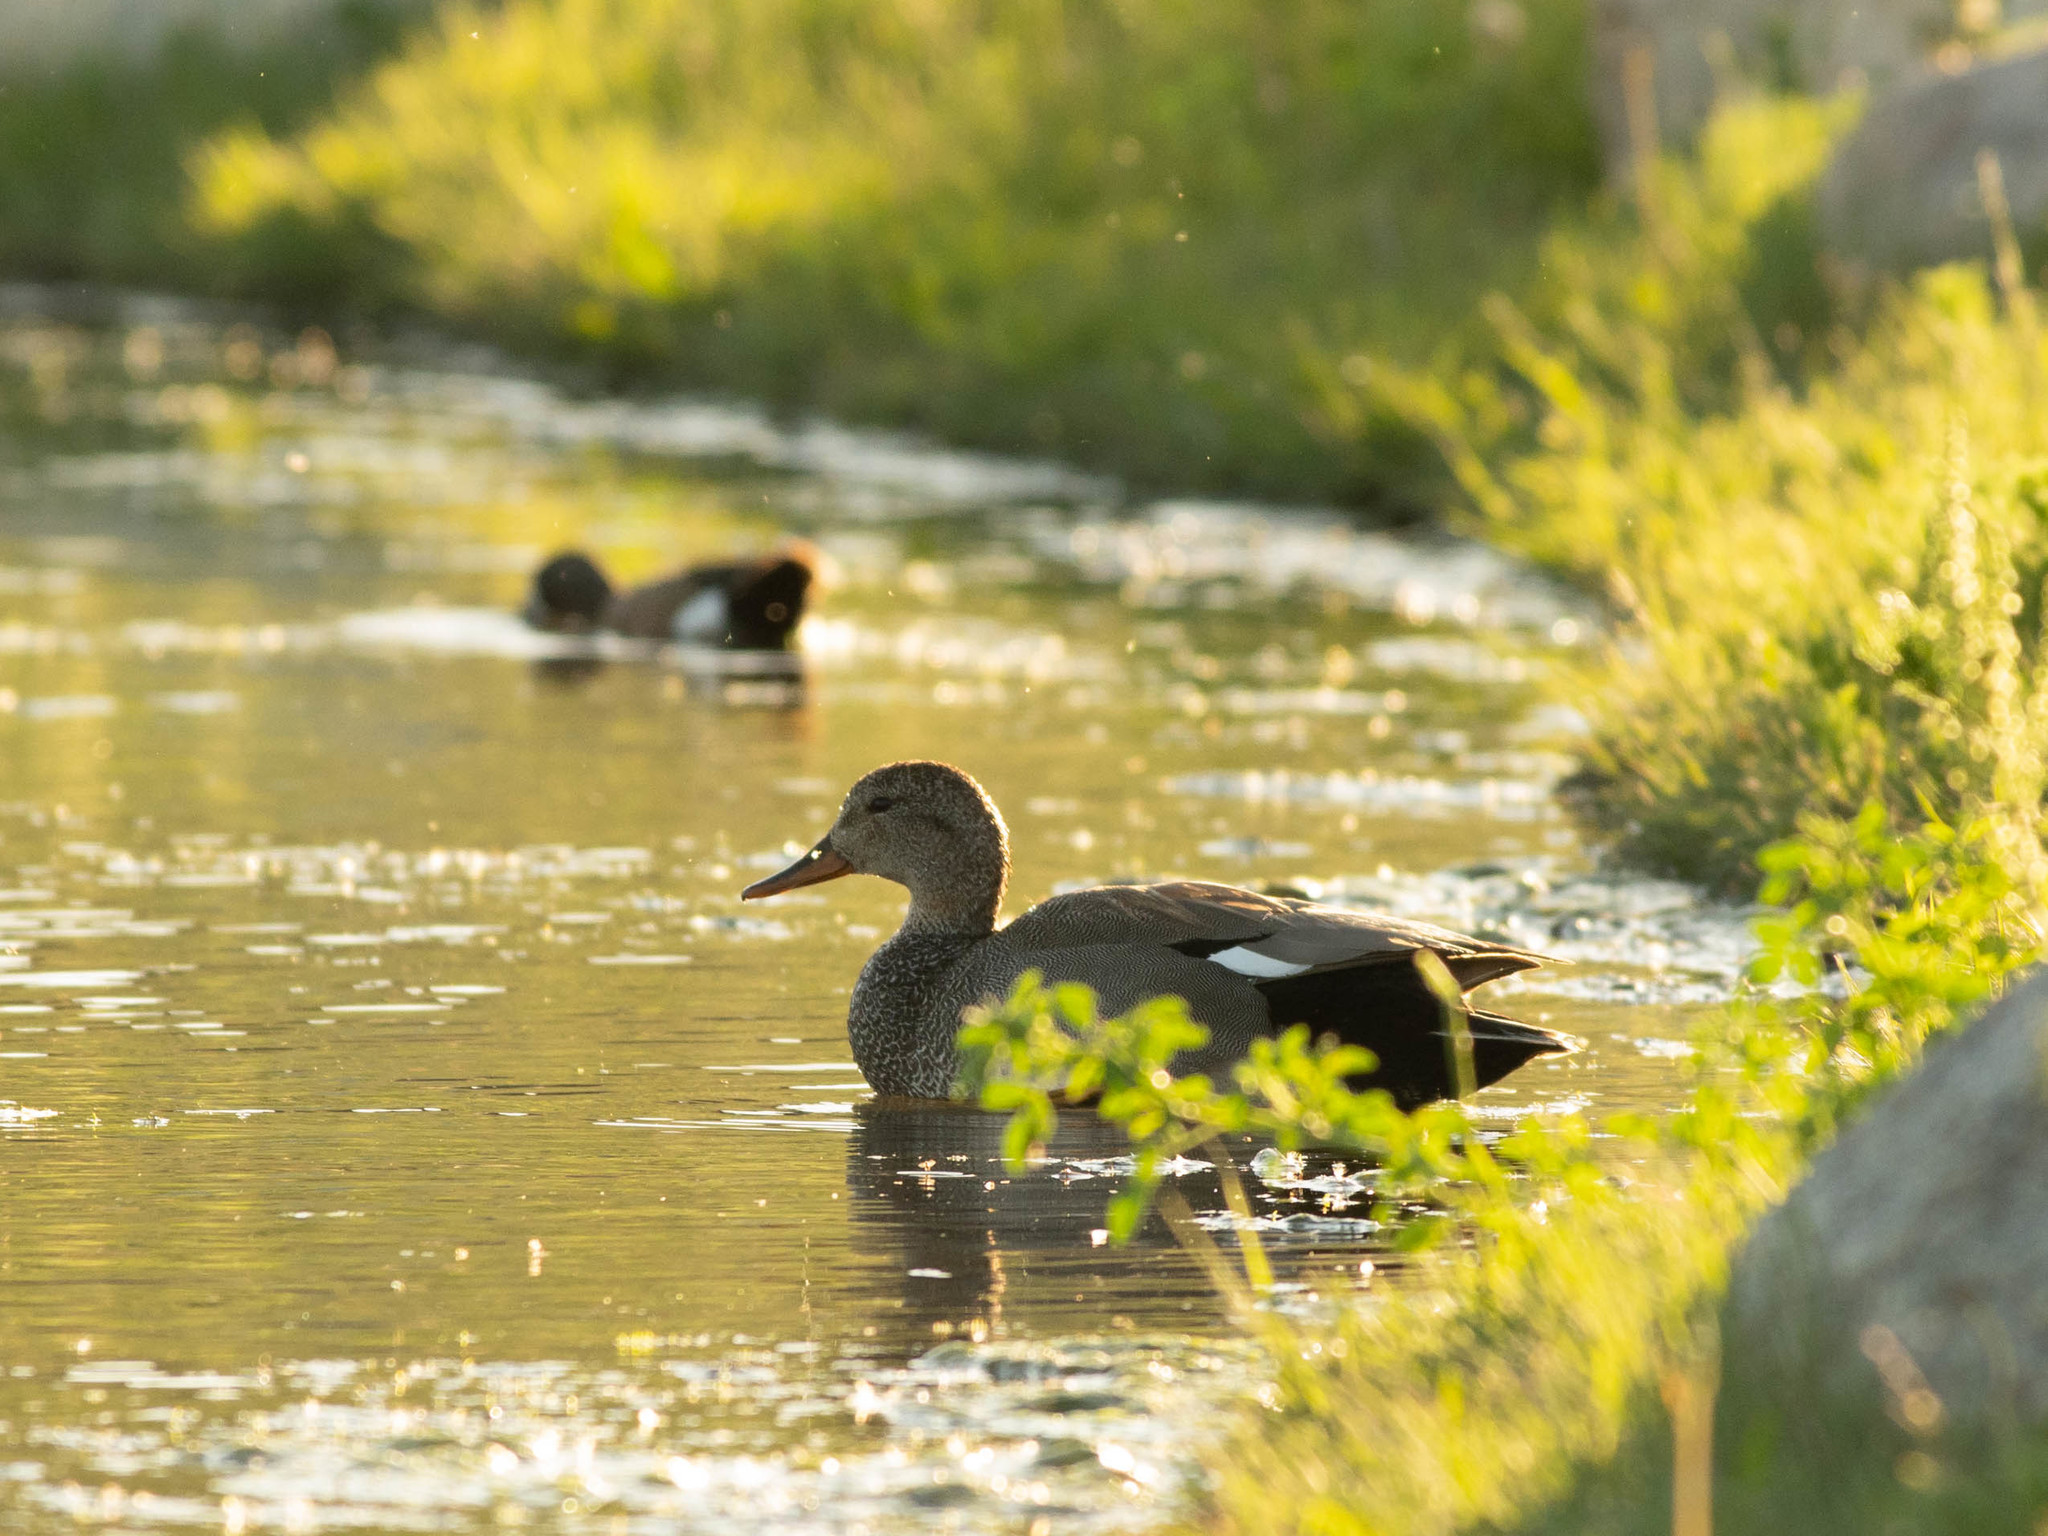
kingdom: Animalia
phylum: Chordata
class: Aves
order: Anseriformes
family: Anatidae
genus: Mareca
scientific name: Mareca strepera
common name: Gadwall
